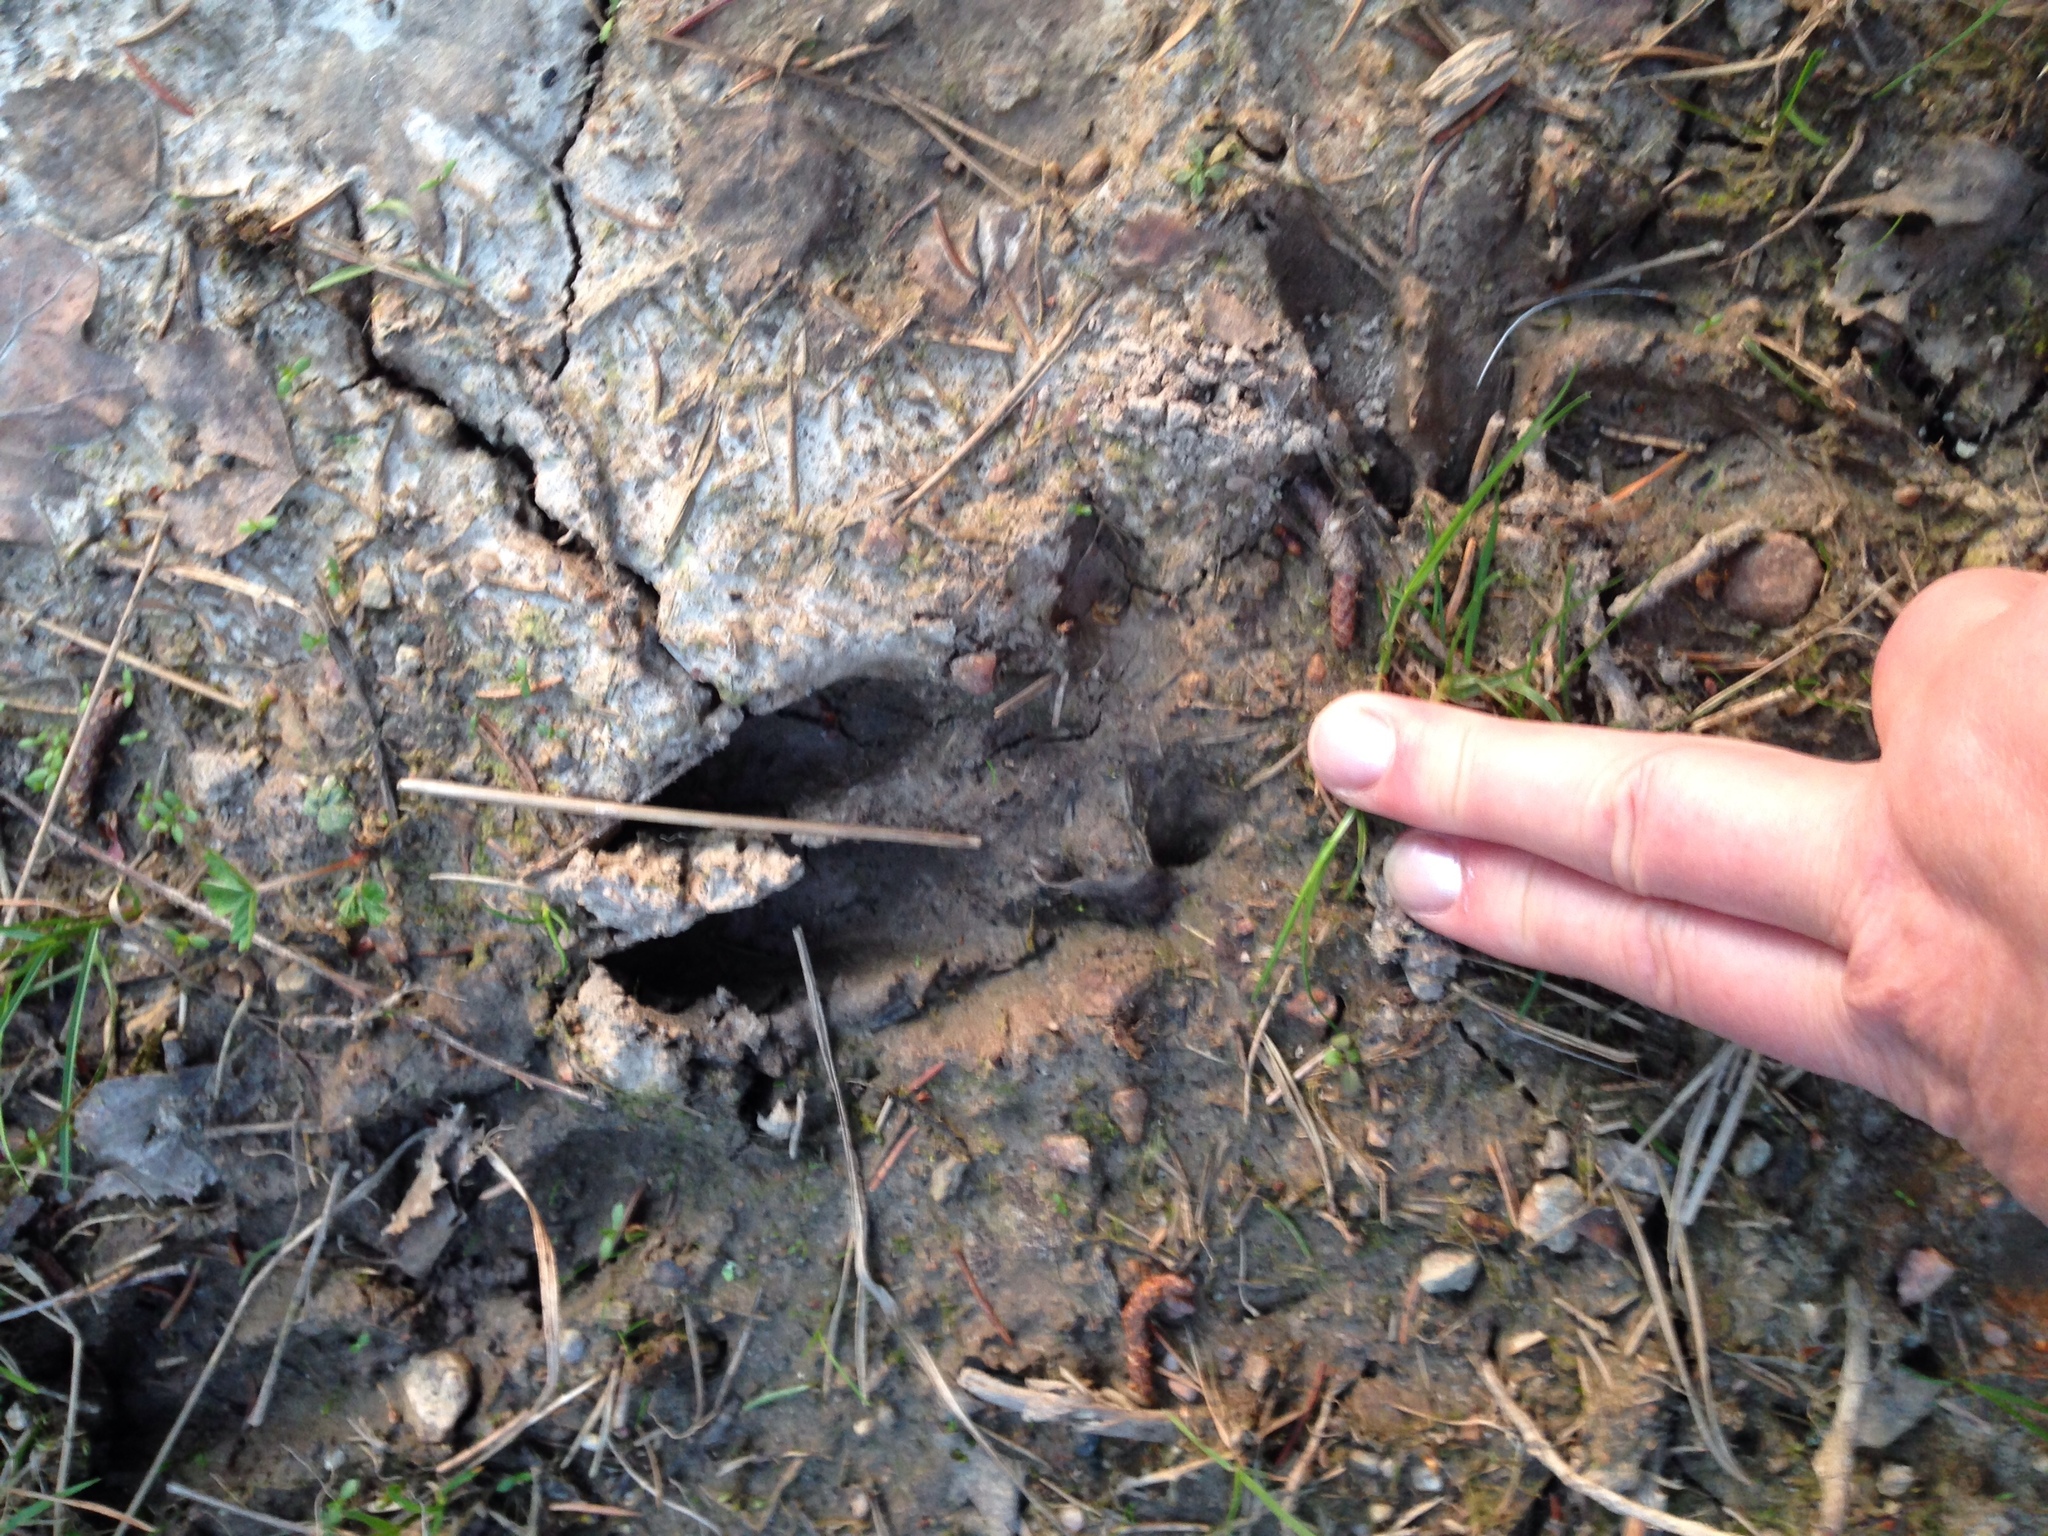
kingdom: Animalia
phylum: Chordata
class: Mammalia
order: Artiodactyla
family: Suidae
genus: Sus
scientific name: Sus scrofa
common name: Wild boar
